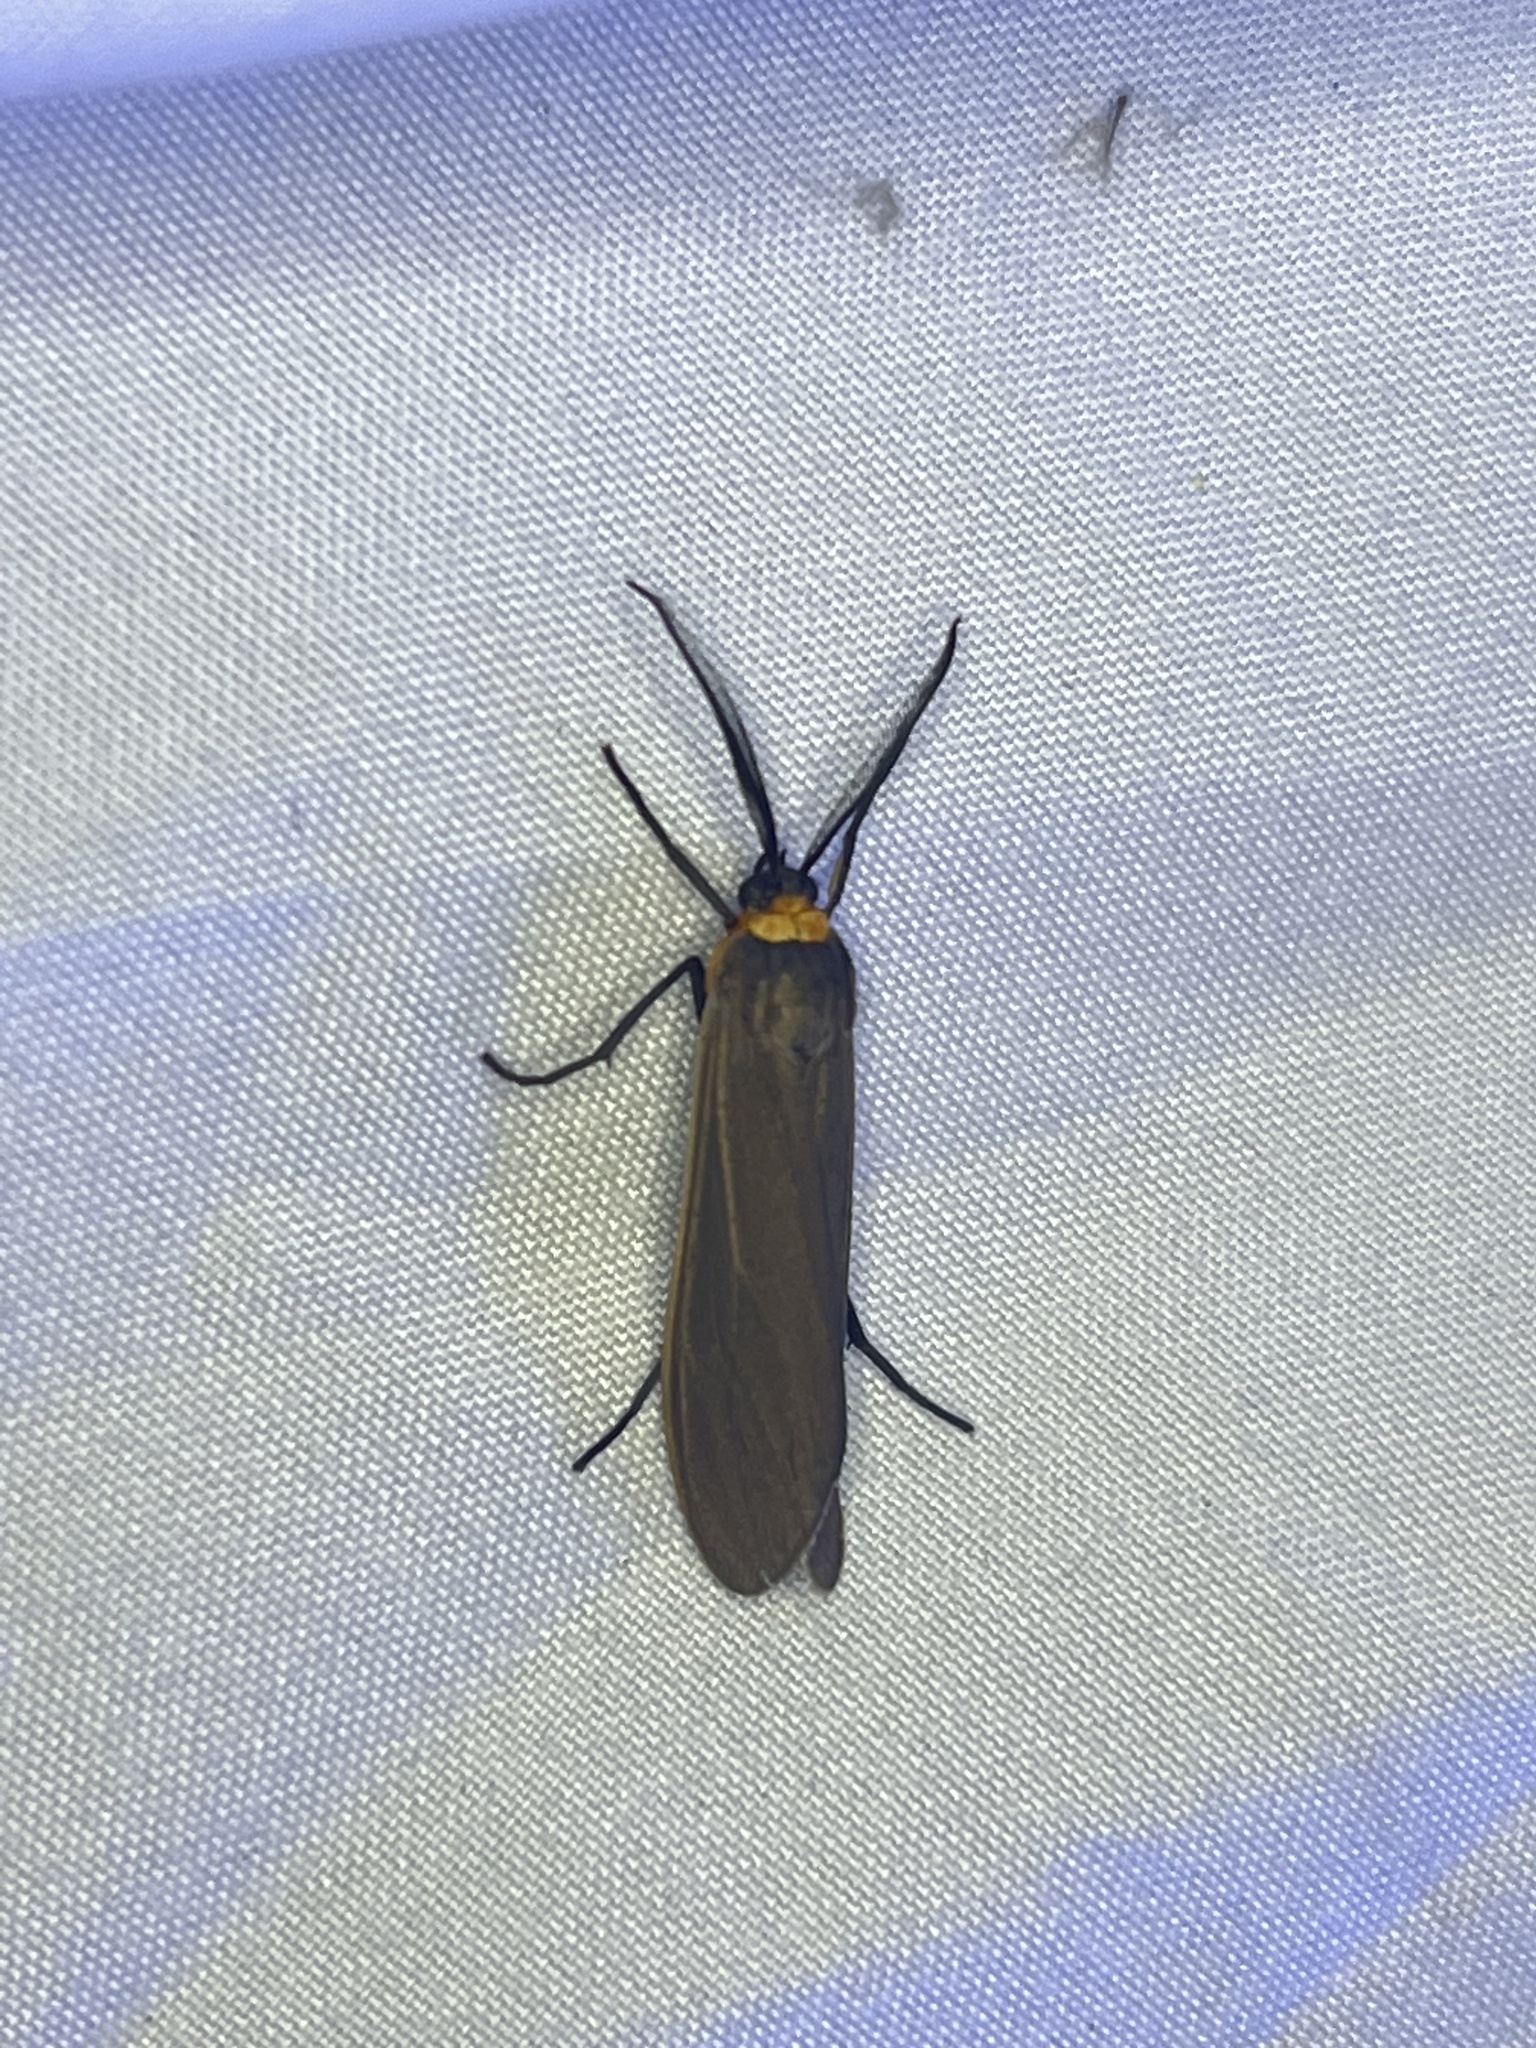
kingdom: Animalia
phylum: Arthropoda
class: Insecta
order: Lepidoptera
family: Erebidae
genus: Cisseps
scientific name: Cisseps fulvicollis
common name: Yellow-collared scape moth
